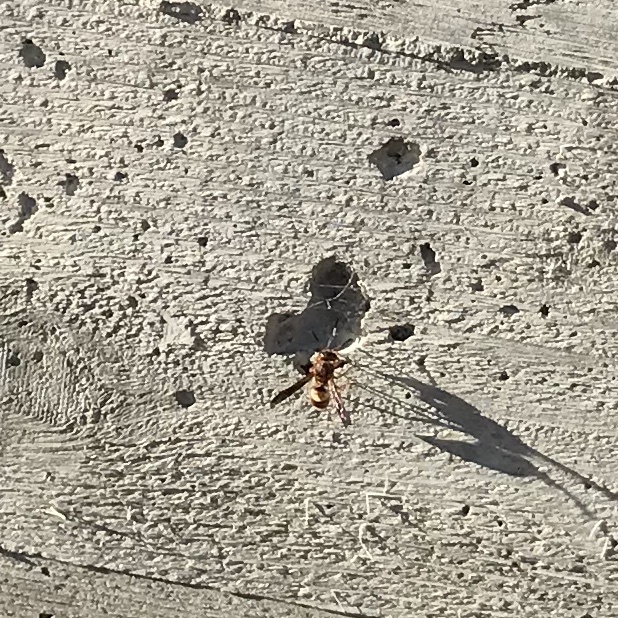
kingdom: Animalia
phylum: Arthropoda
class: Insecta
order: Hymenoptera
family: Eumenidae
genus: Euodynerus
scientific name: Euodynerus
